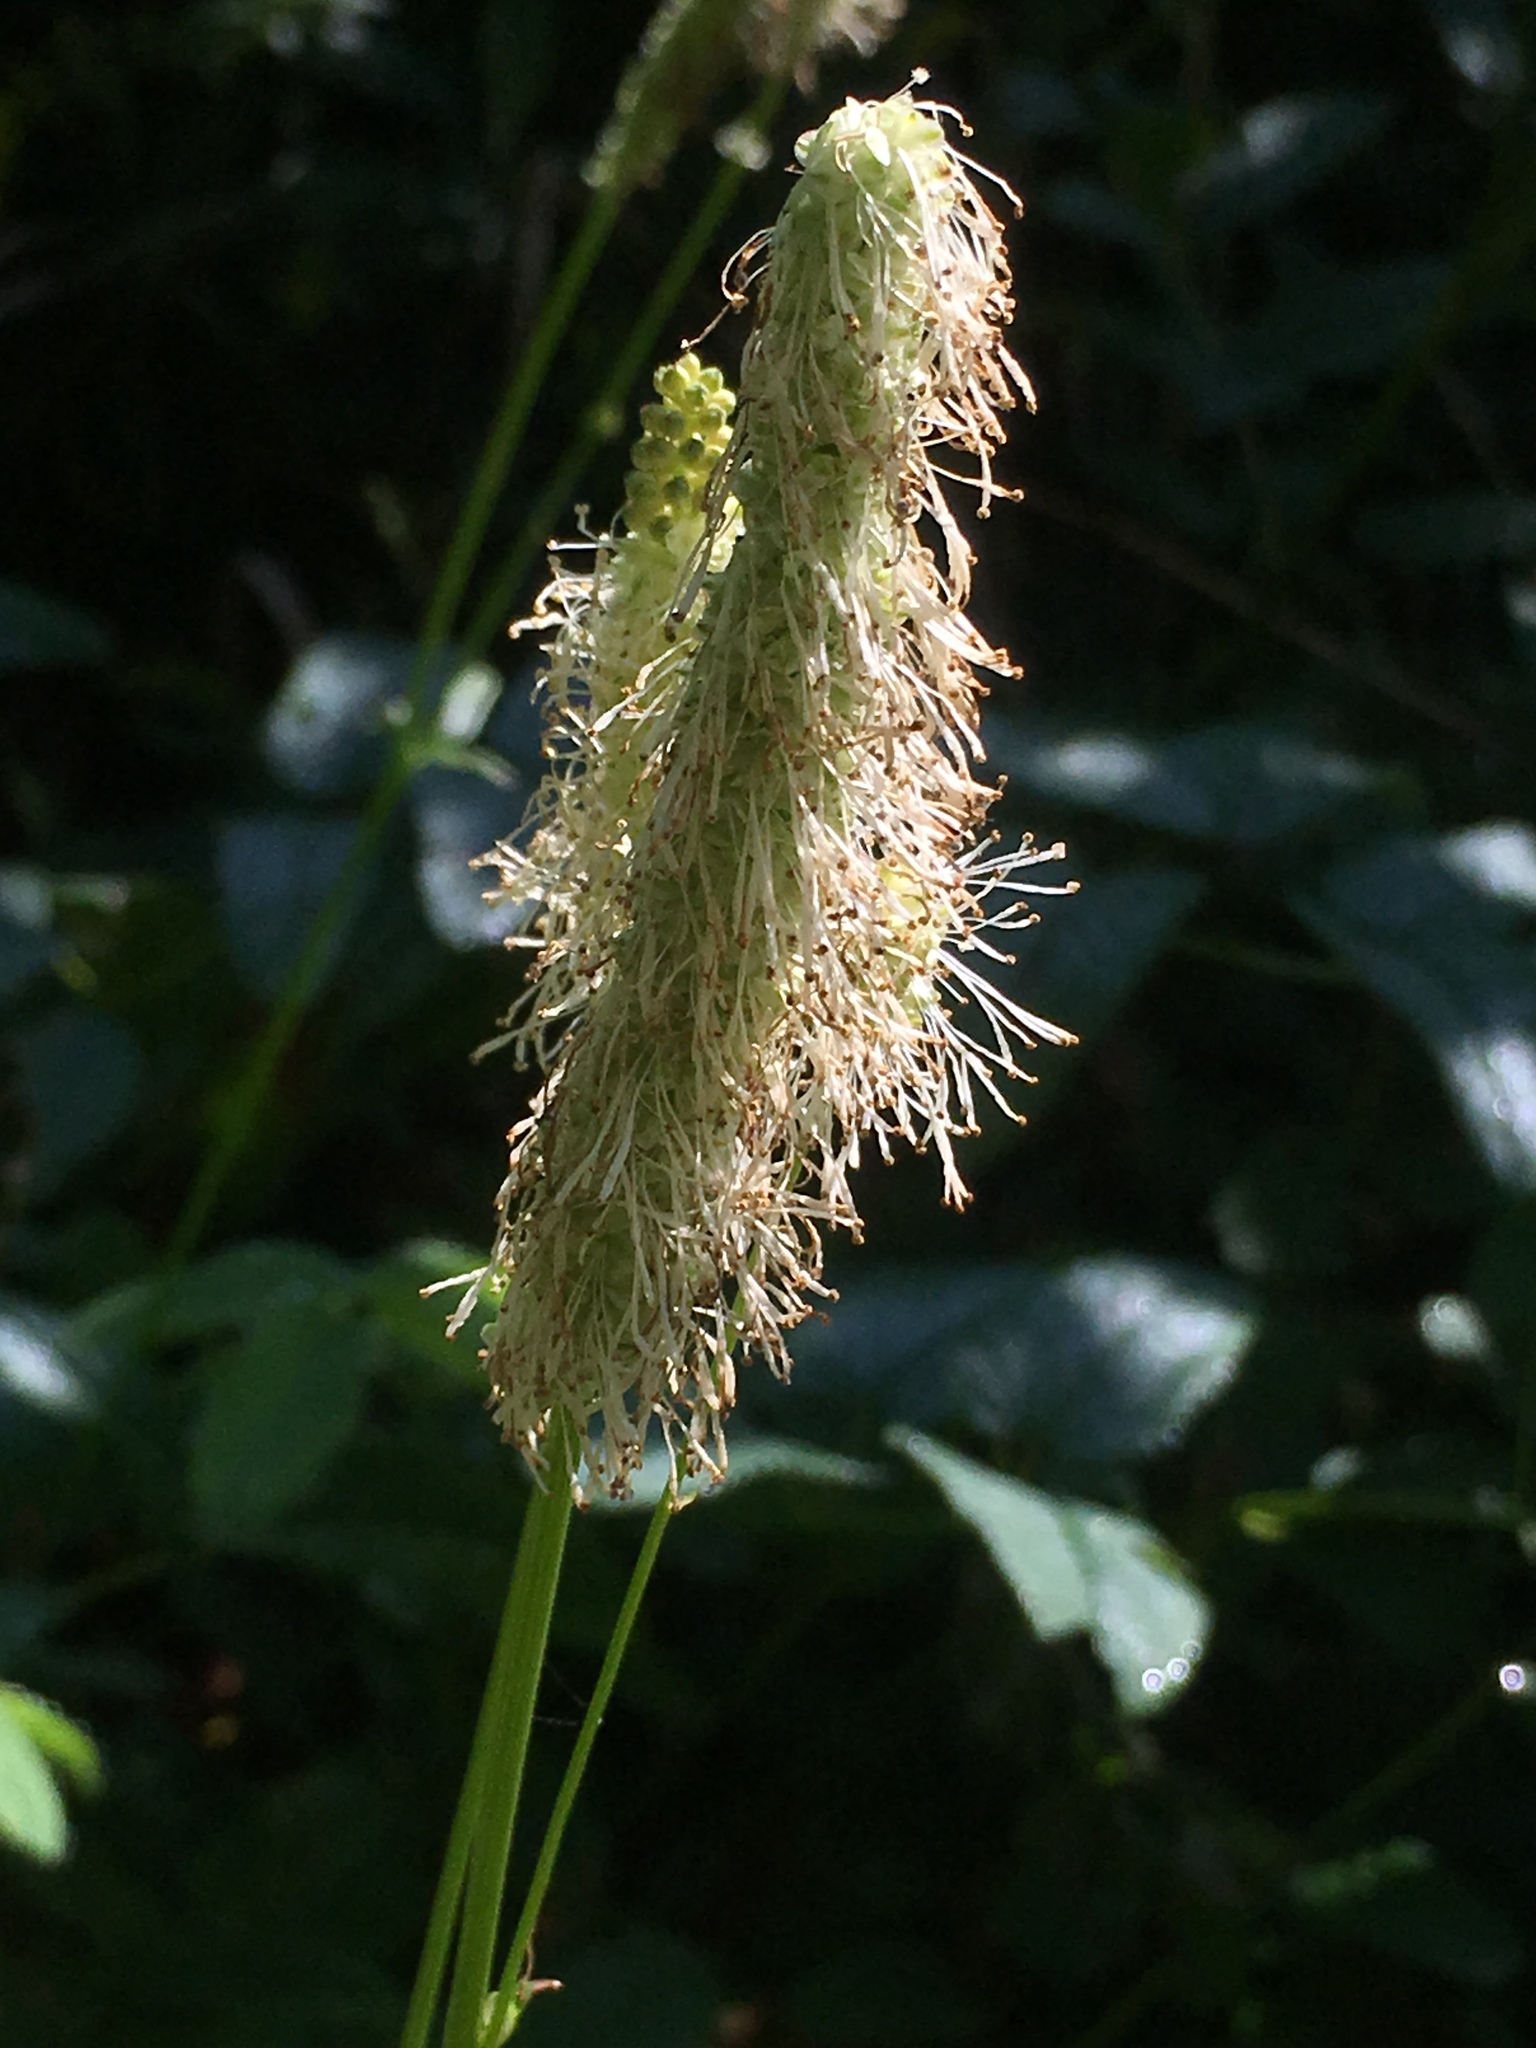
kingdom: Plantae
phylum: Tracheophyta
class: Magnoliopsida
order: Rosales
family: Rosaceae
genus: Sanguisorba
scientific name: Sanguisorba canadensis
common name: White burnet
